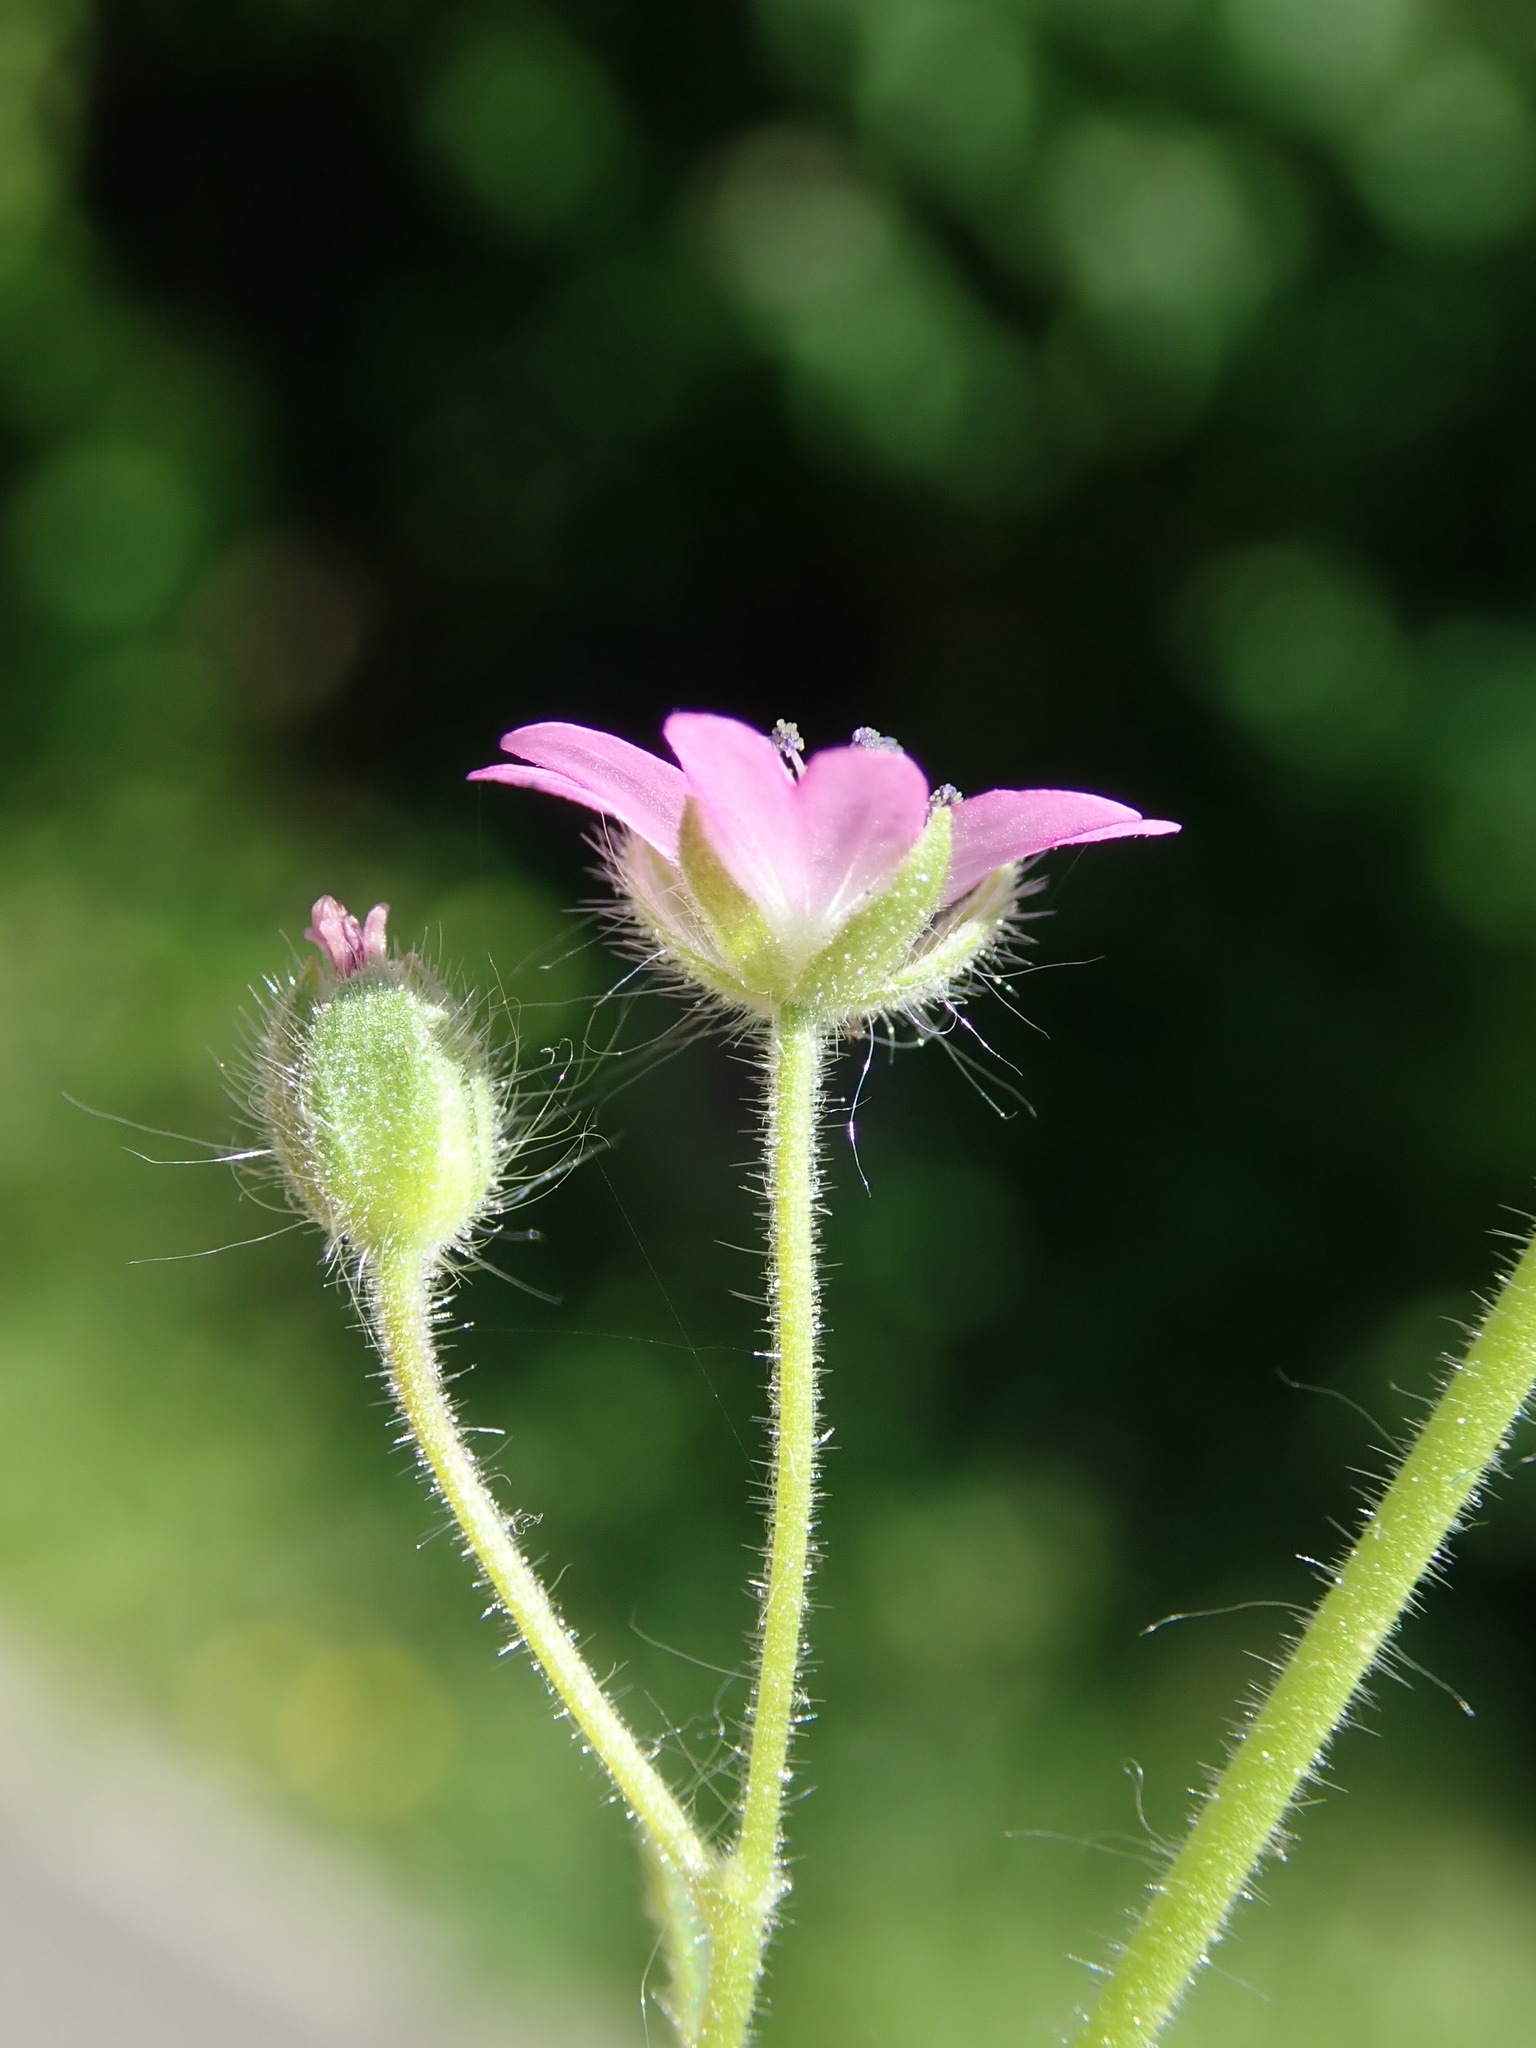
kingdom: Plantae
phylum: Tracheophyta
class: Magnoliopsida
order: Geraniales
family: Geraniaceae
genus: Geranium
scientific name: Geranium molle
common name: Dove's-foot crane's-bill
